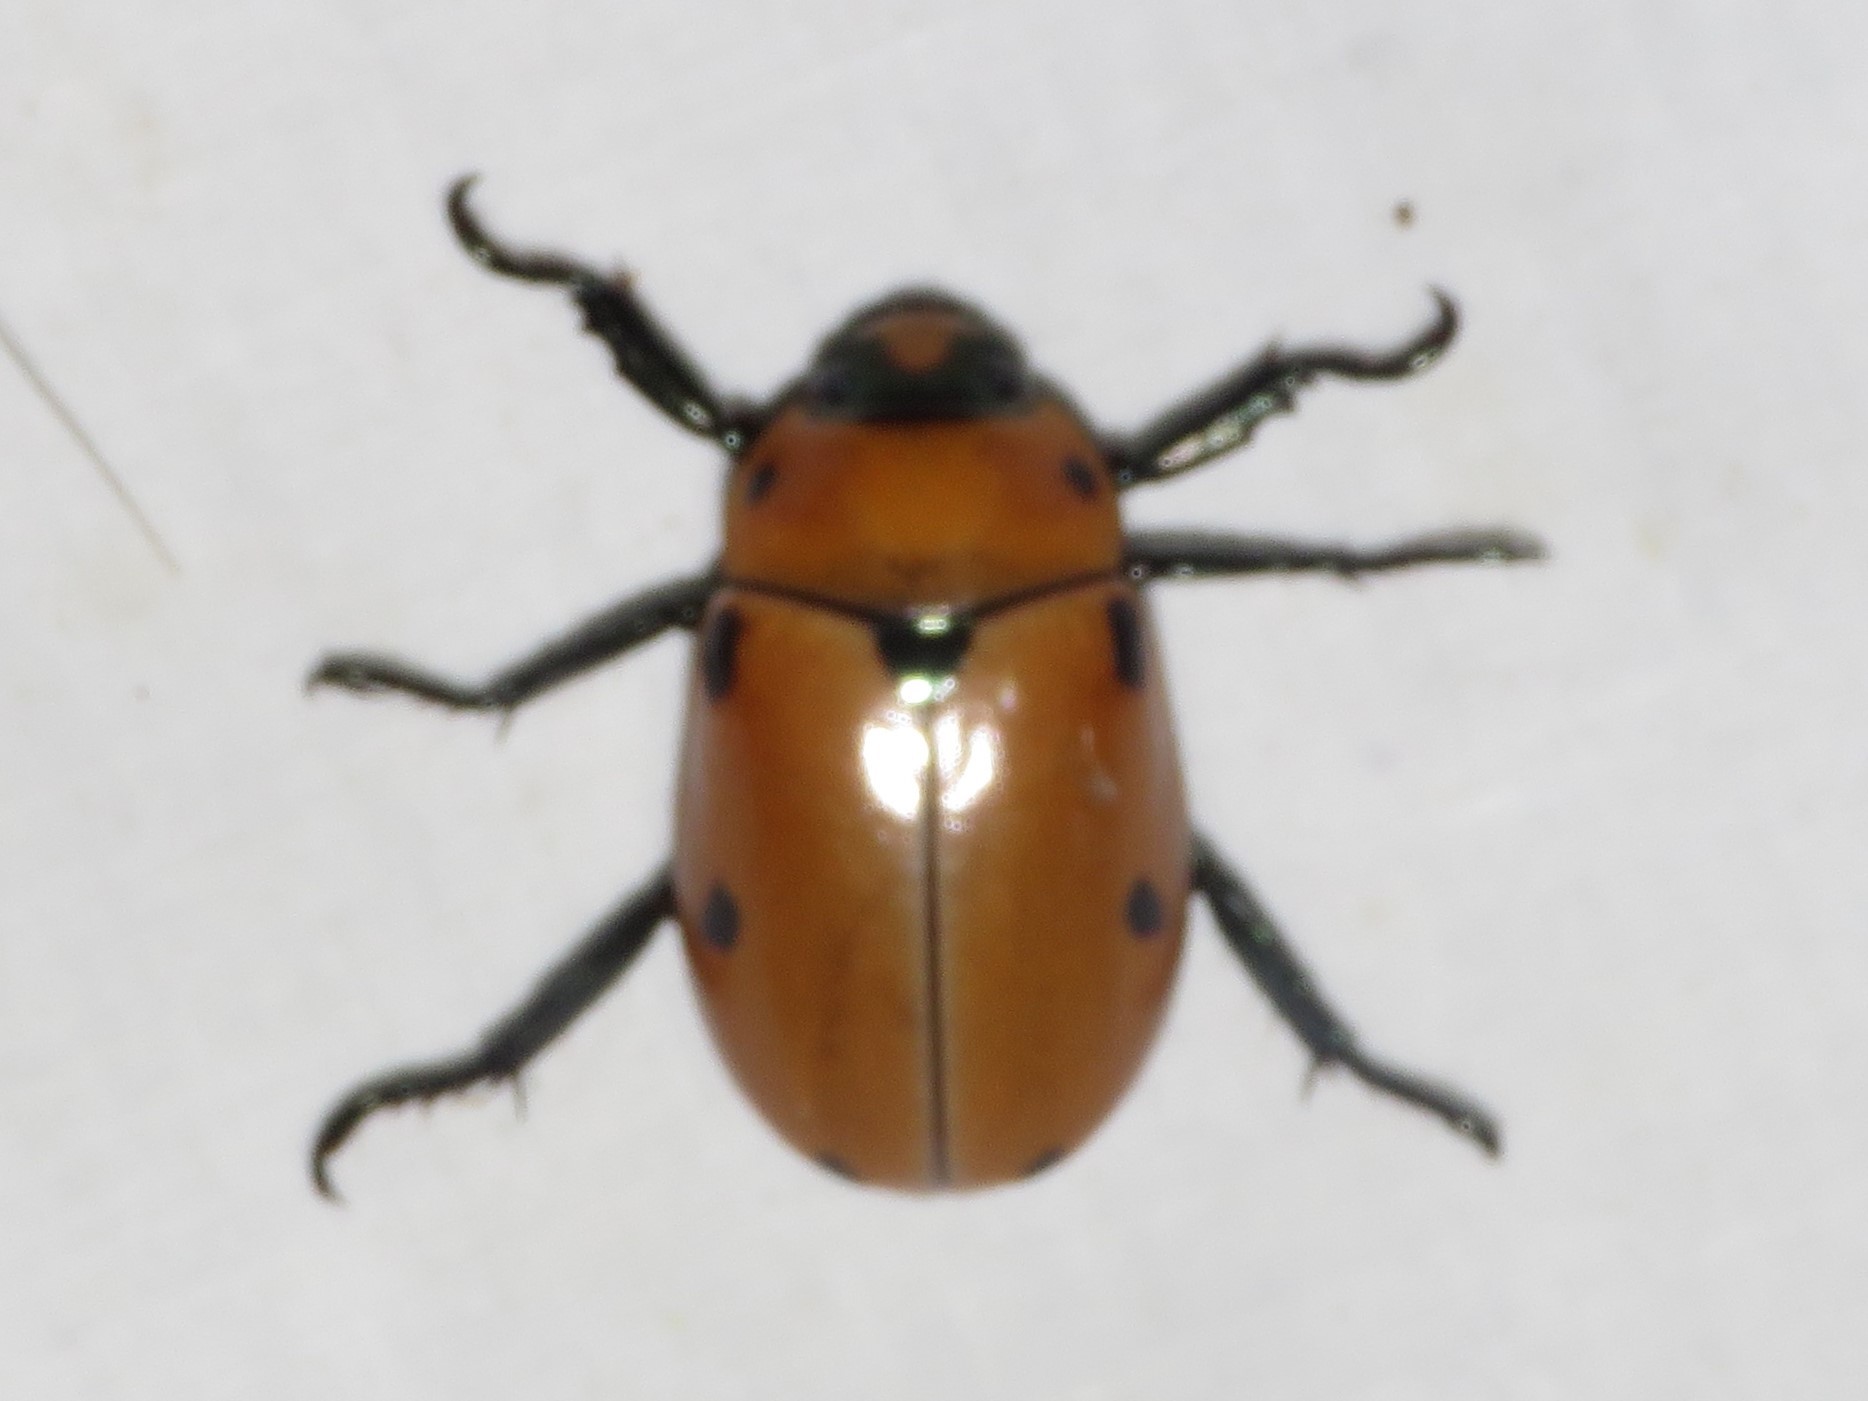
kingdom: Animalia
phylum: Arthropoda
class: Insecta
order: Coleoptera
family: Scarabaeidae
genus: Pelidnota
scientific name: Pelidnota punctata
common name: Grapevine beetle
